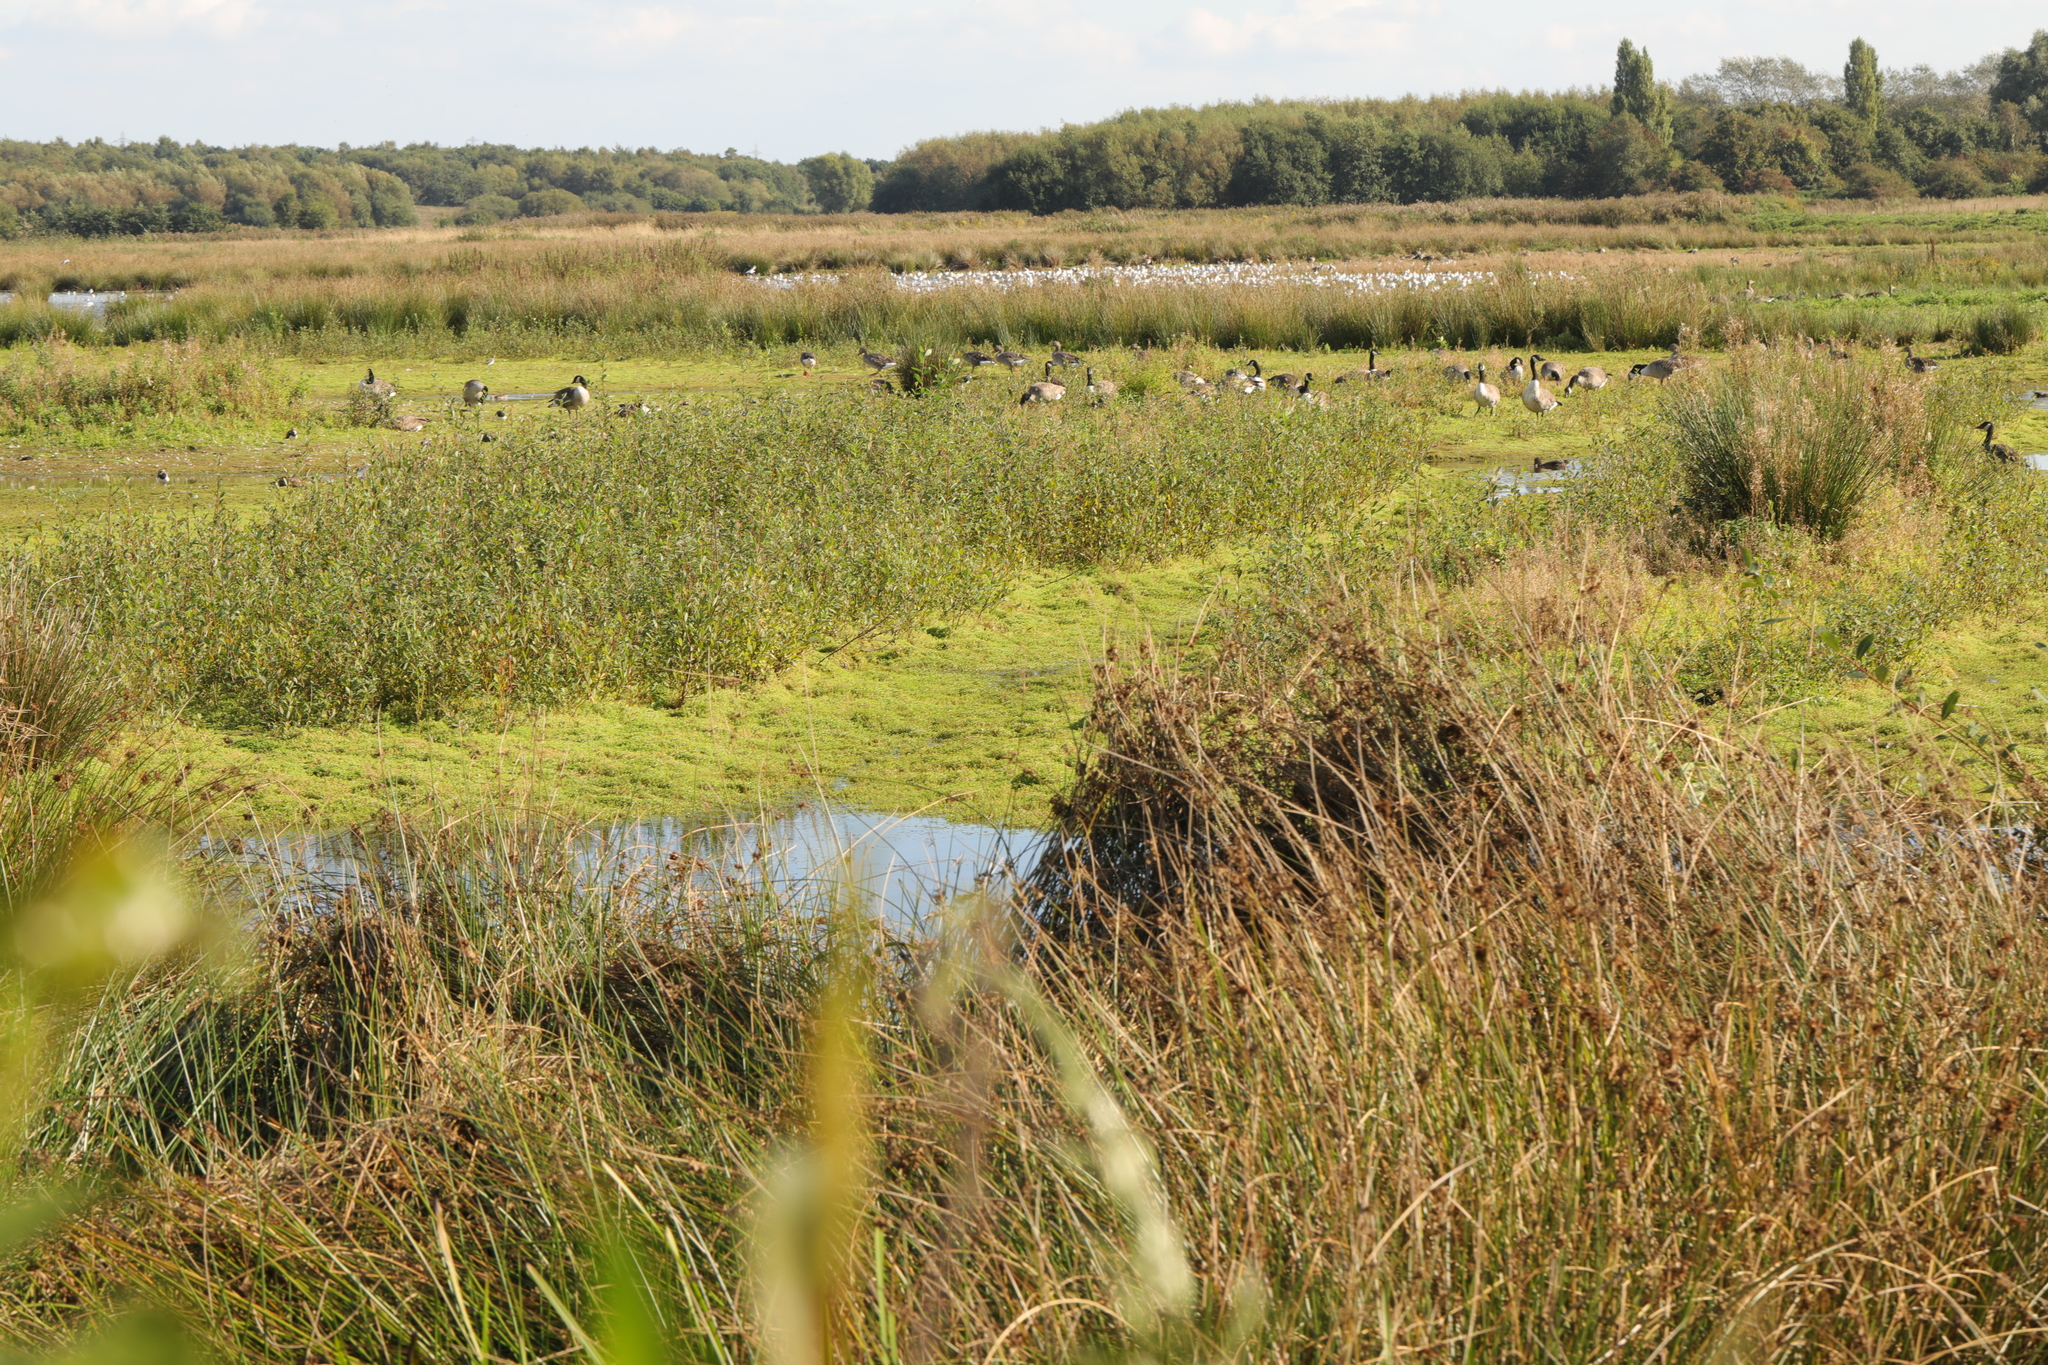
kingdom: Plantae
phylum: Tracheophyta
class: Magnoliopsida
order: Saxifragales
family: Crassulaceae
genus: Crassula
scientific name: Crassula helmsii
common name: New zealand pigmyweed
